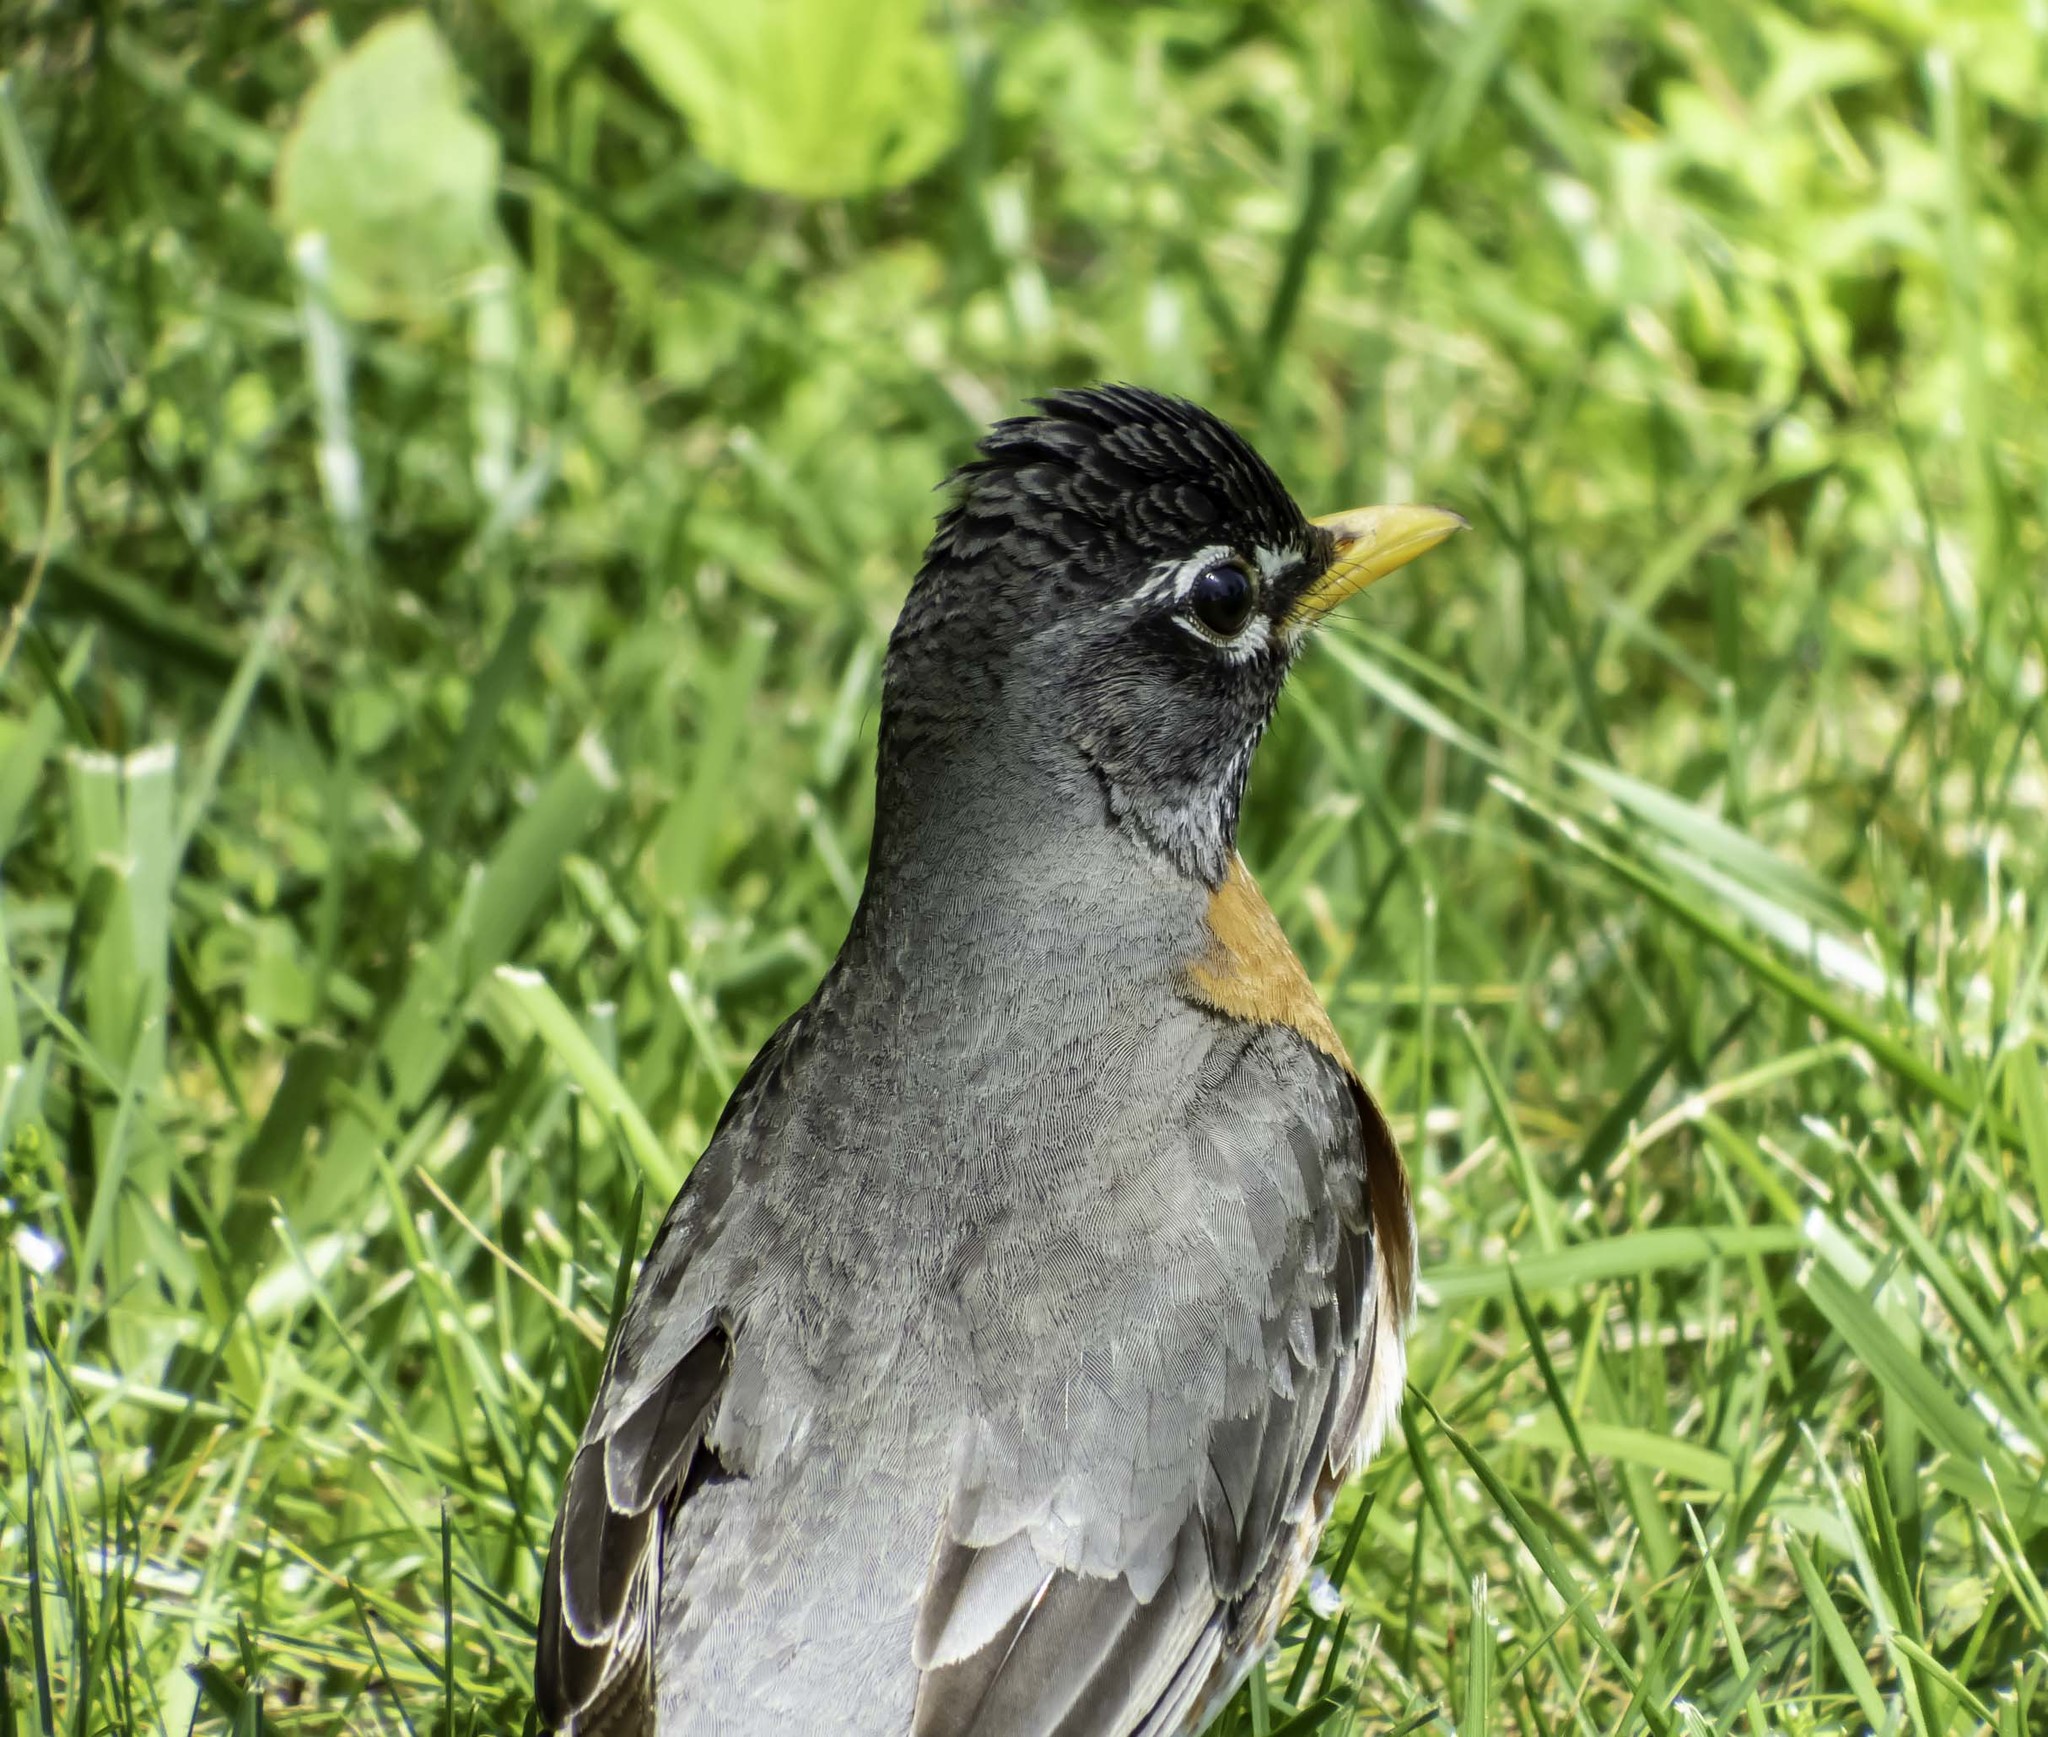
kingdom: Animalia
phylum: Chordata
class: Aves
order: Passeriformes
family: Turdidae
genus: Turdus
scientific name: Turdus migratorius
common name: American robin
